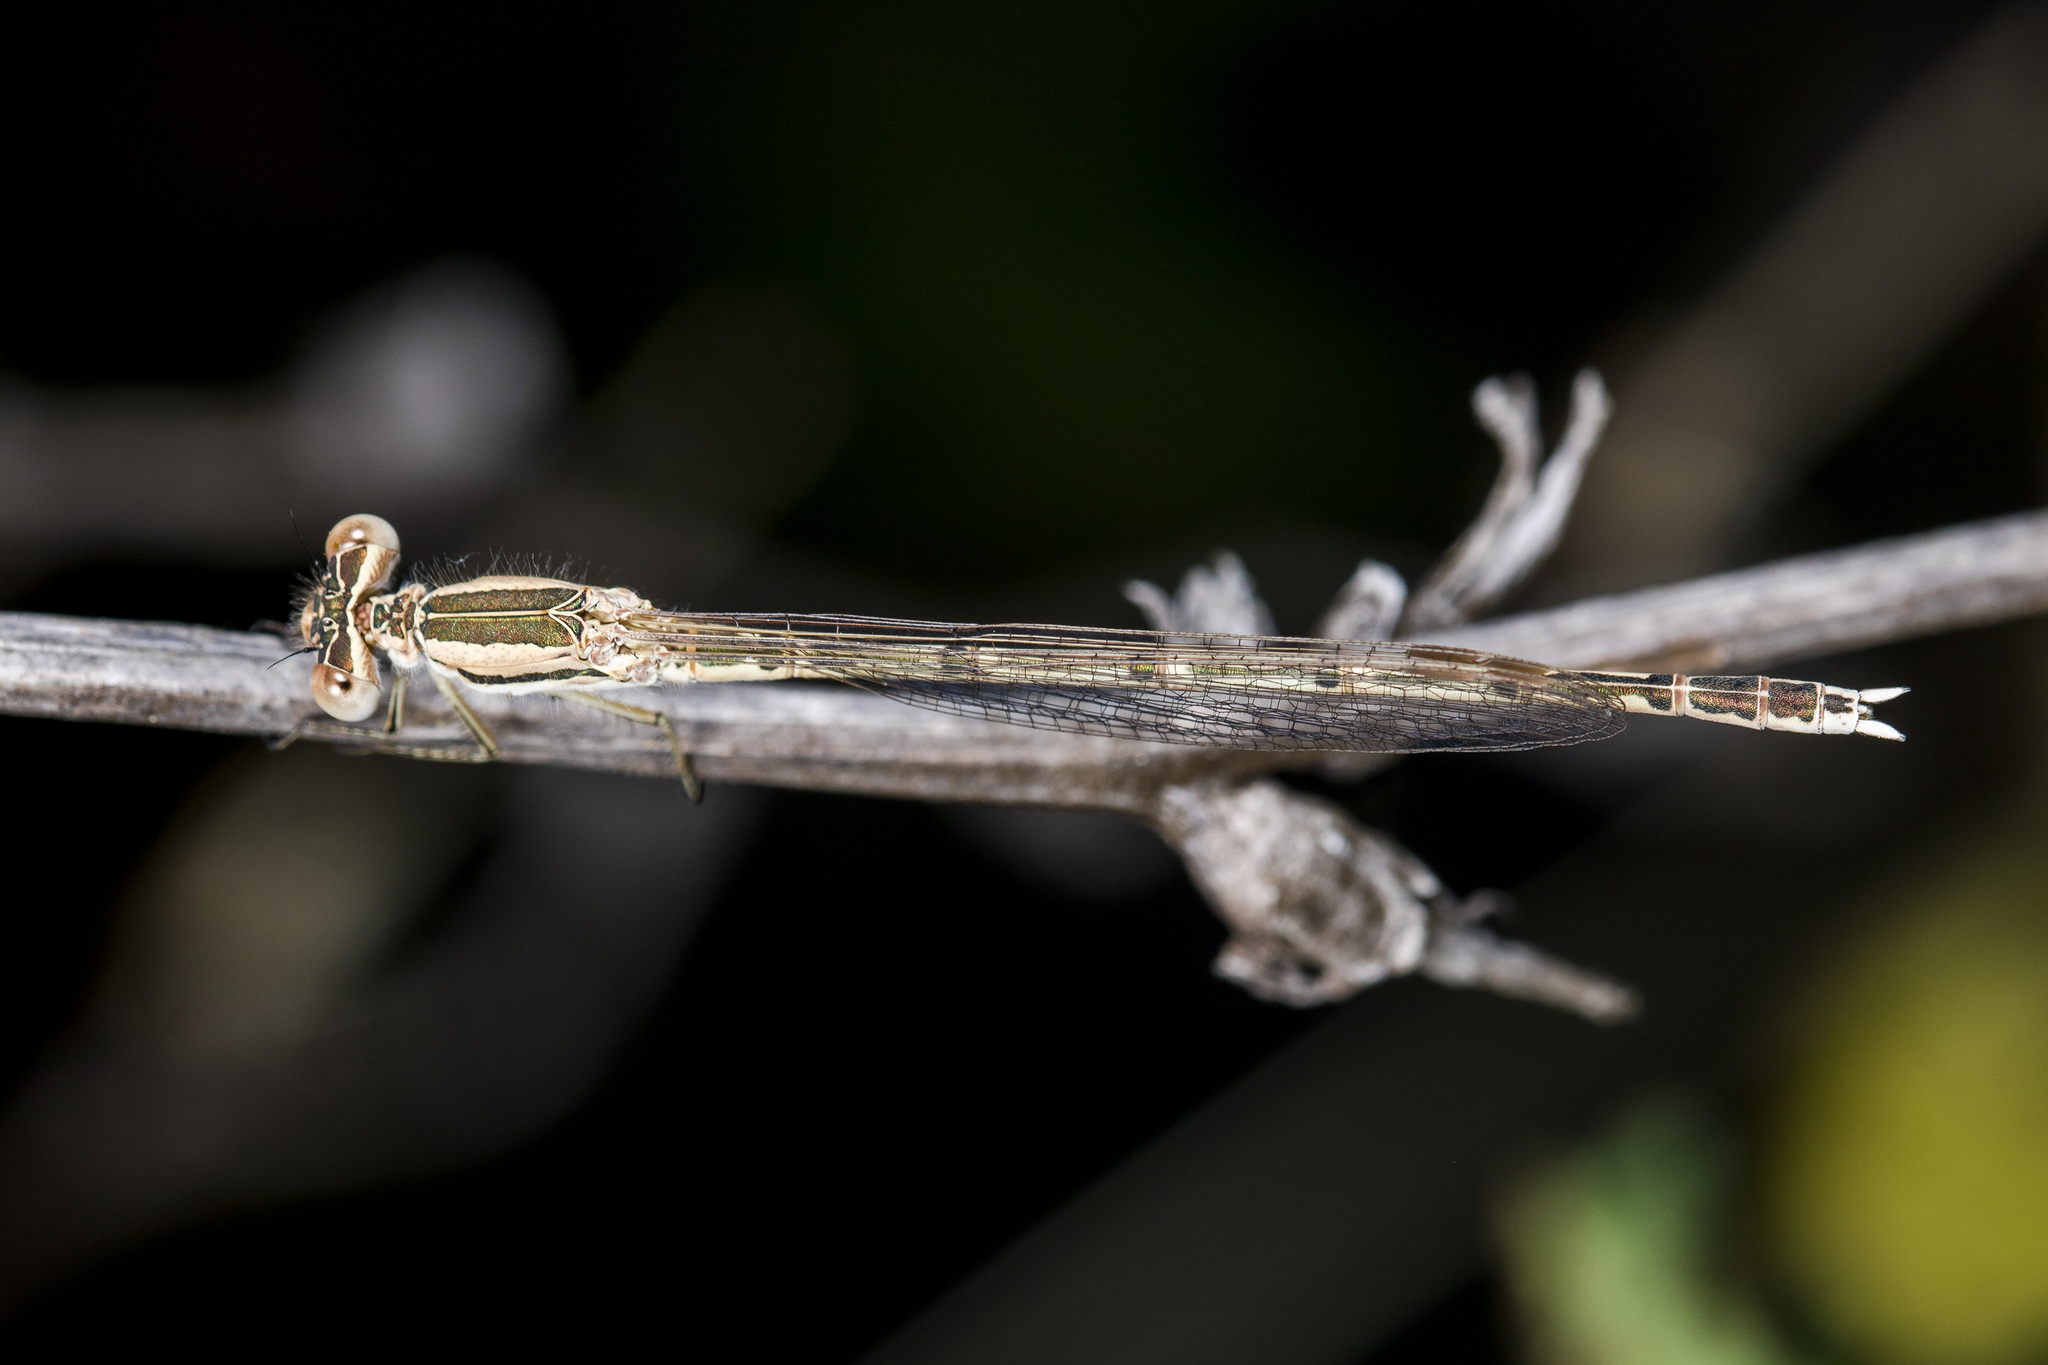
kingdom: Animalia
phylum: Arthropoda
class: Insecta
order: Odonata
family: Lestidae
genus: Sympecma
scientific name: Sympecma fusca
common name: Common winter damsel
